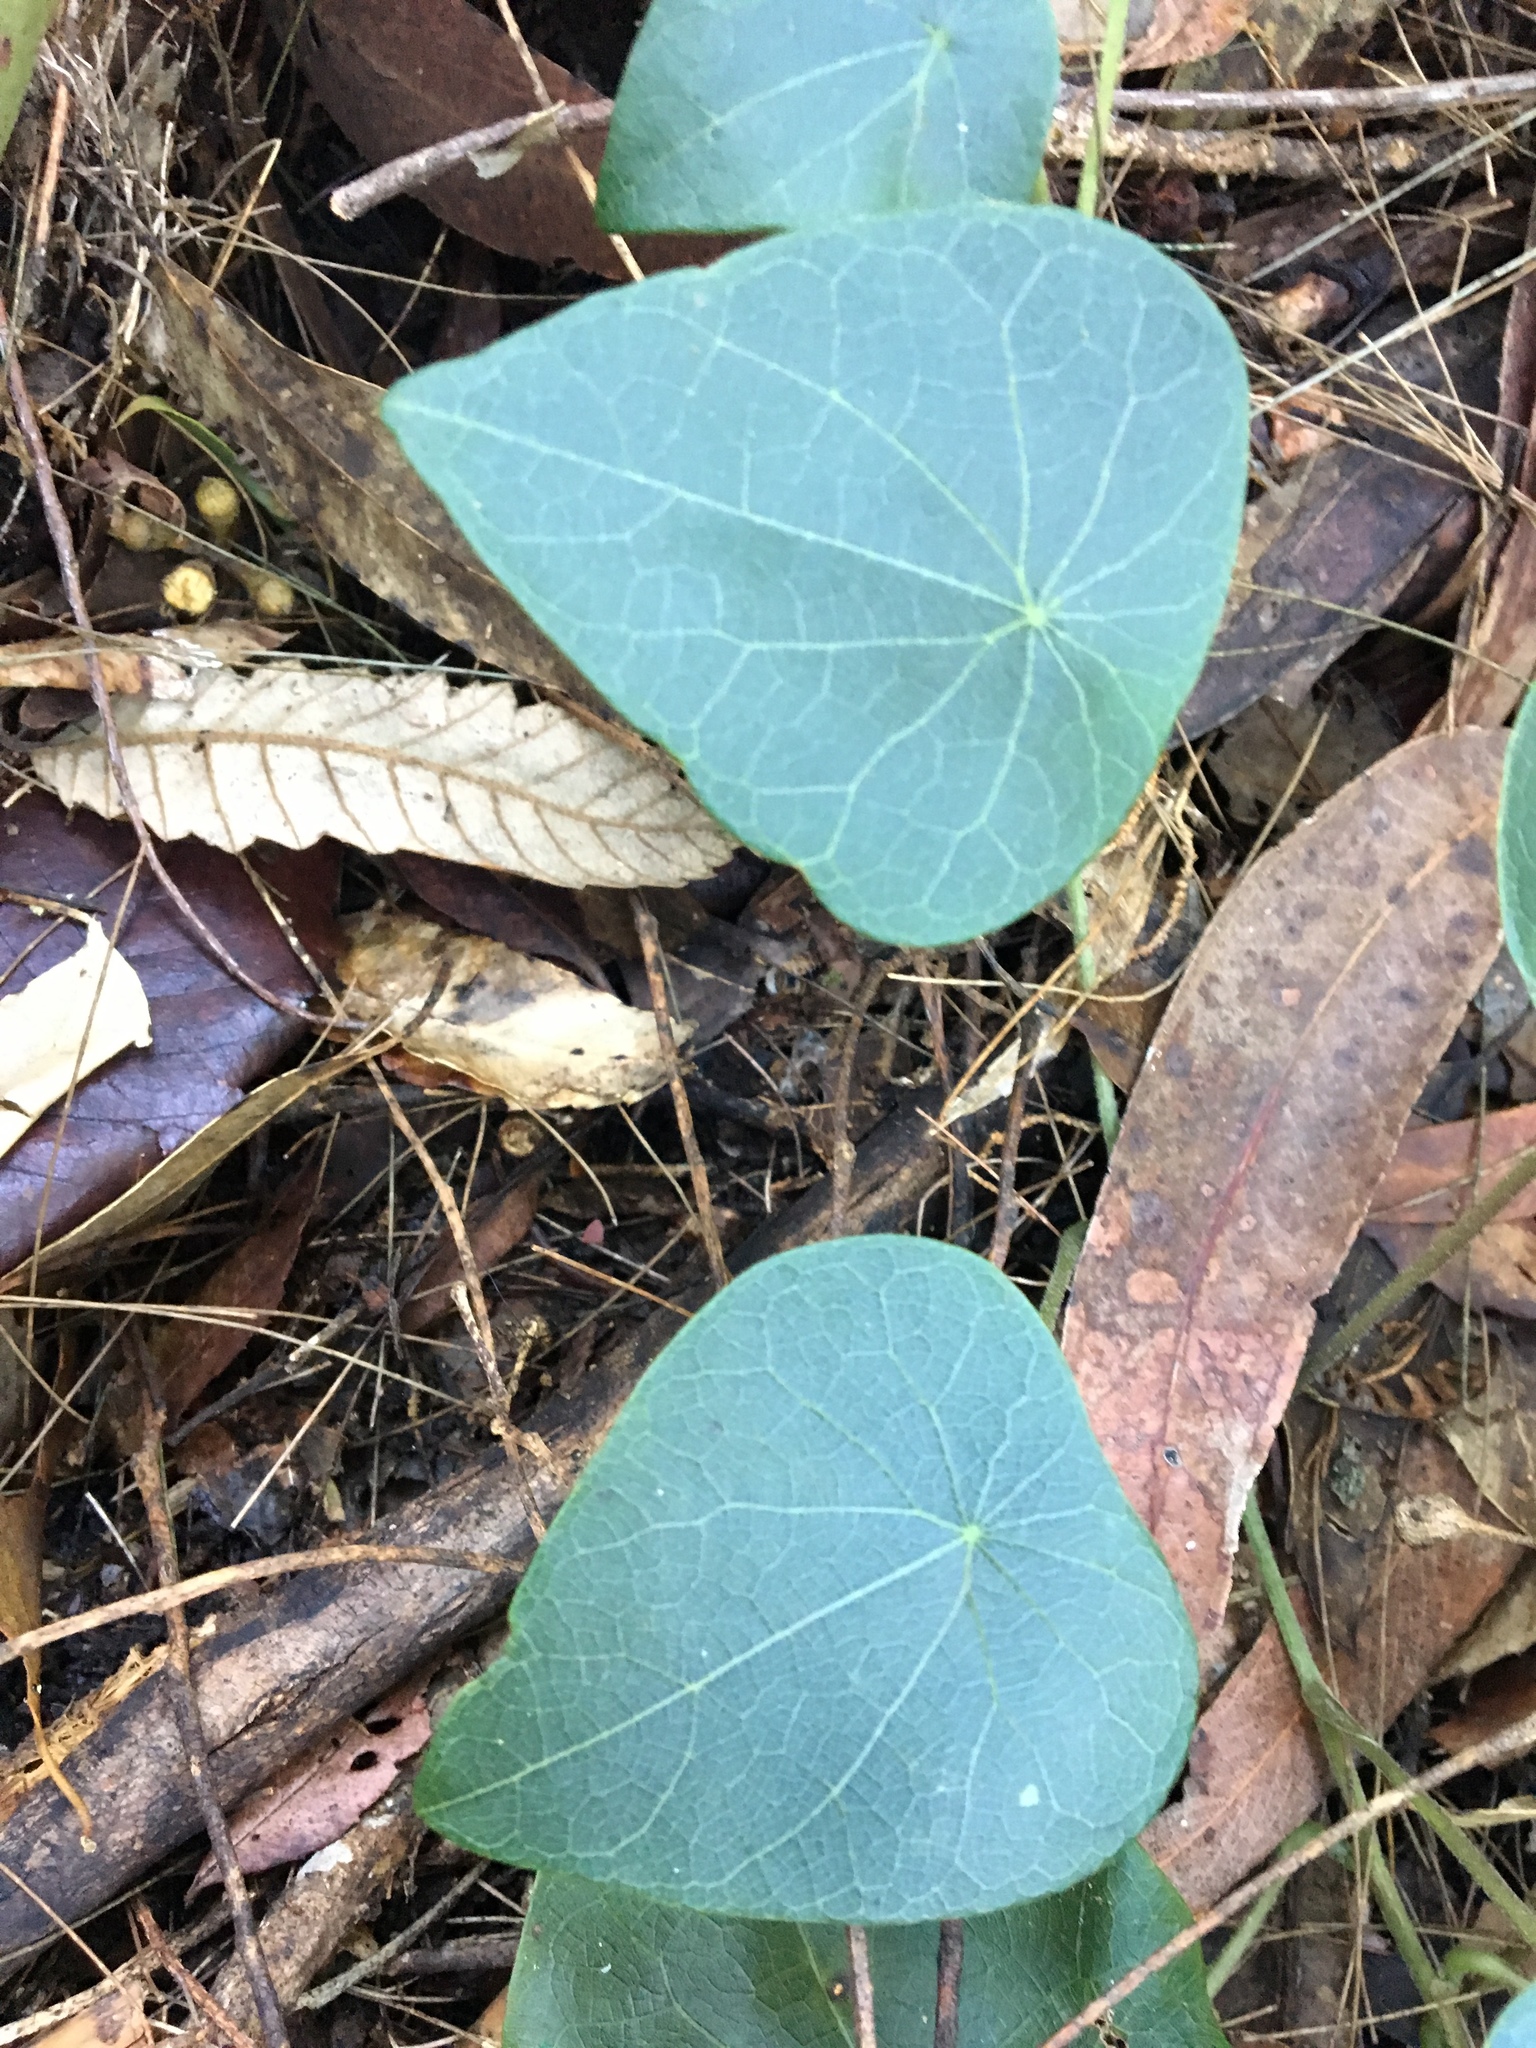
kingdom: Plantae
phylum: Tracheophyta
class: Magnoliopsida
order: Ranunculales
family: Menispermaceae
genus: Stephania
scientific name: Stephania japonica
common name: Snake vine
